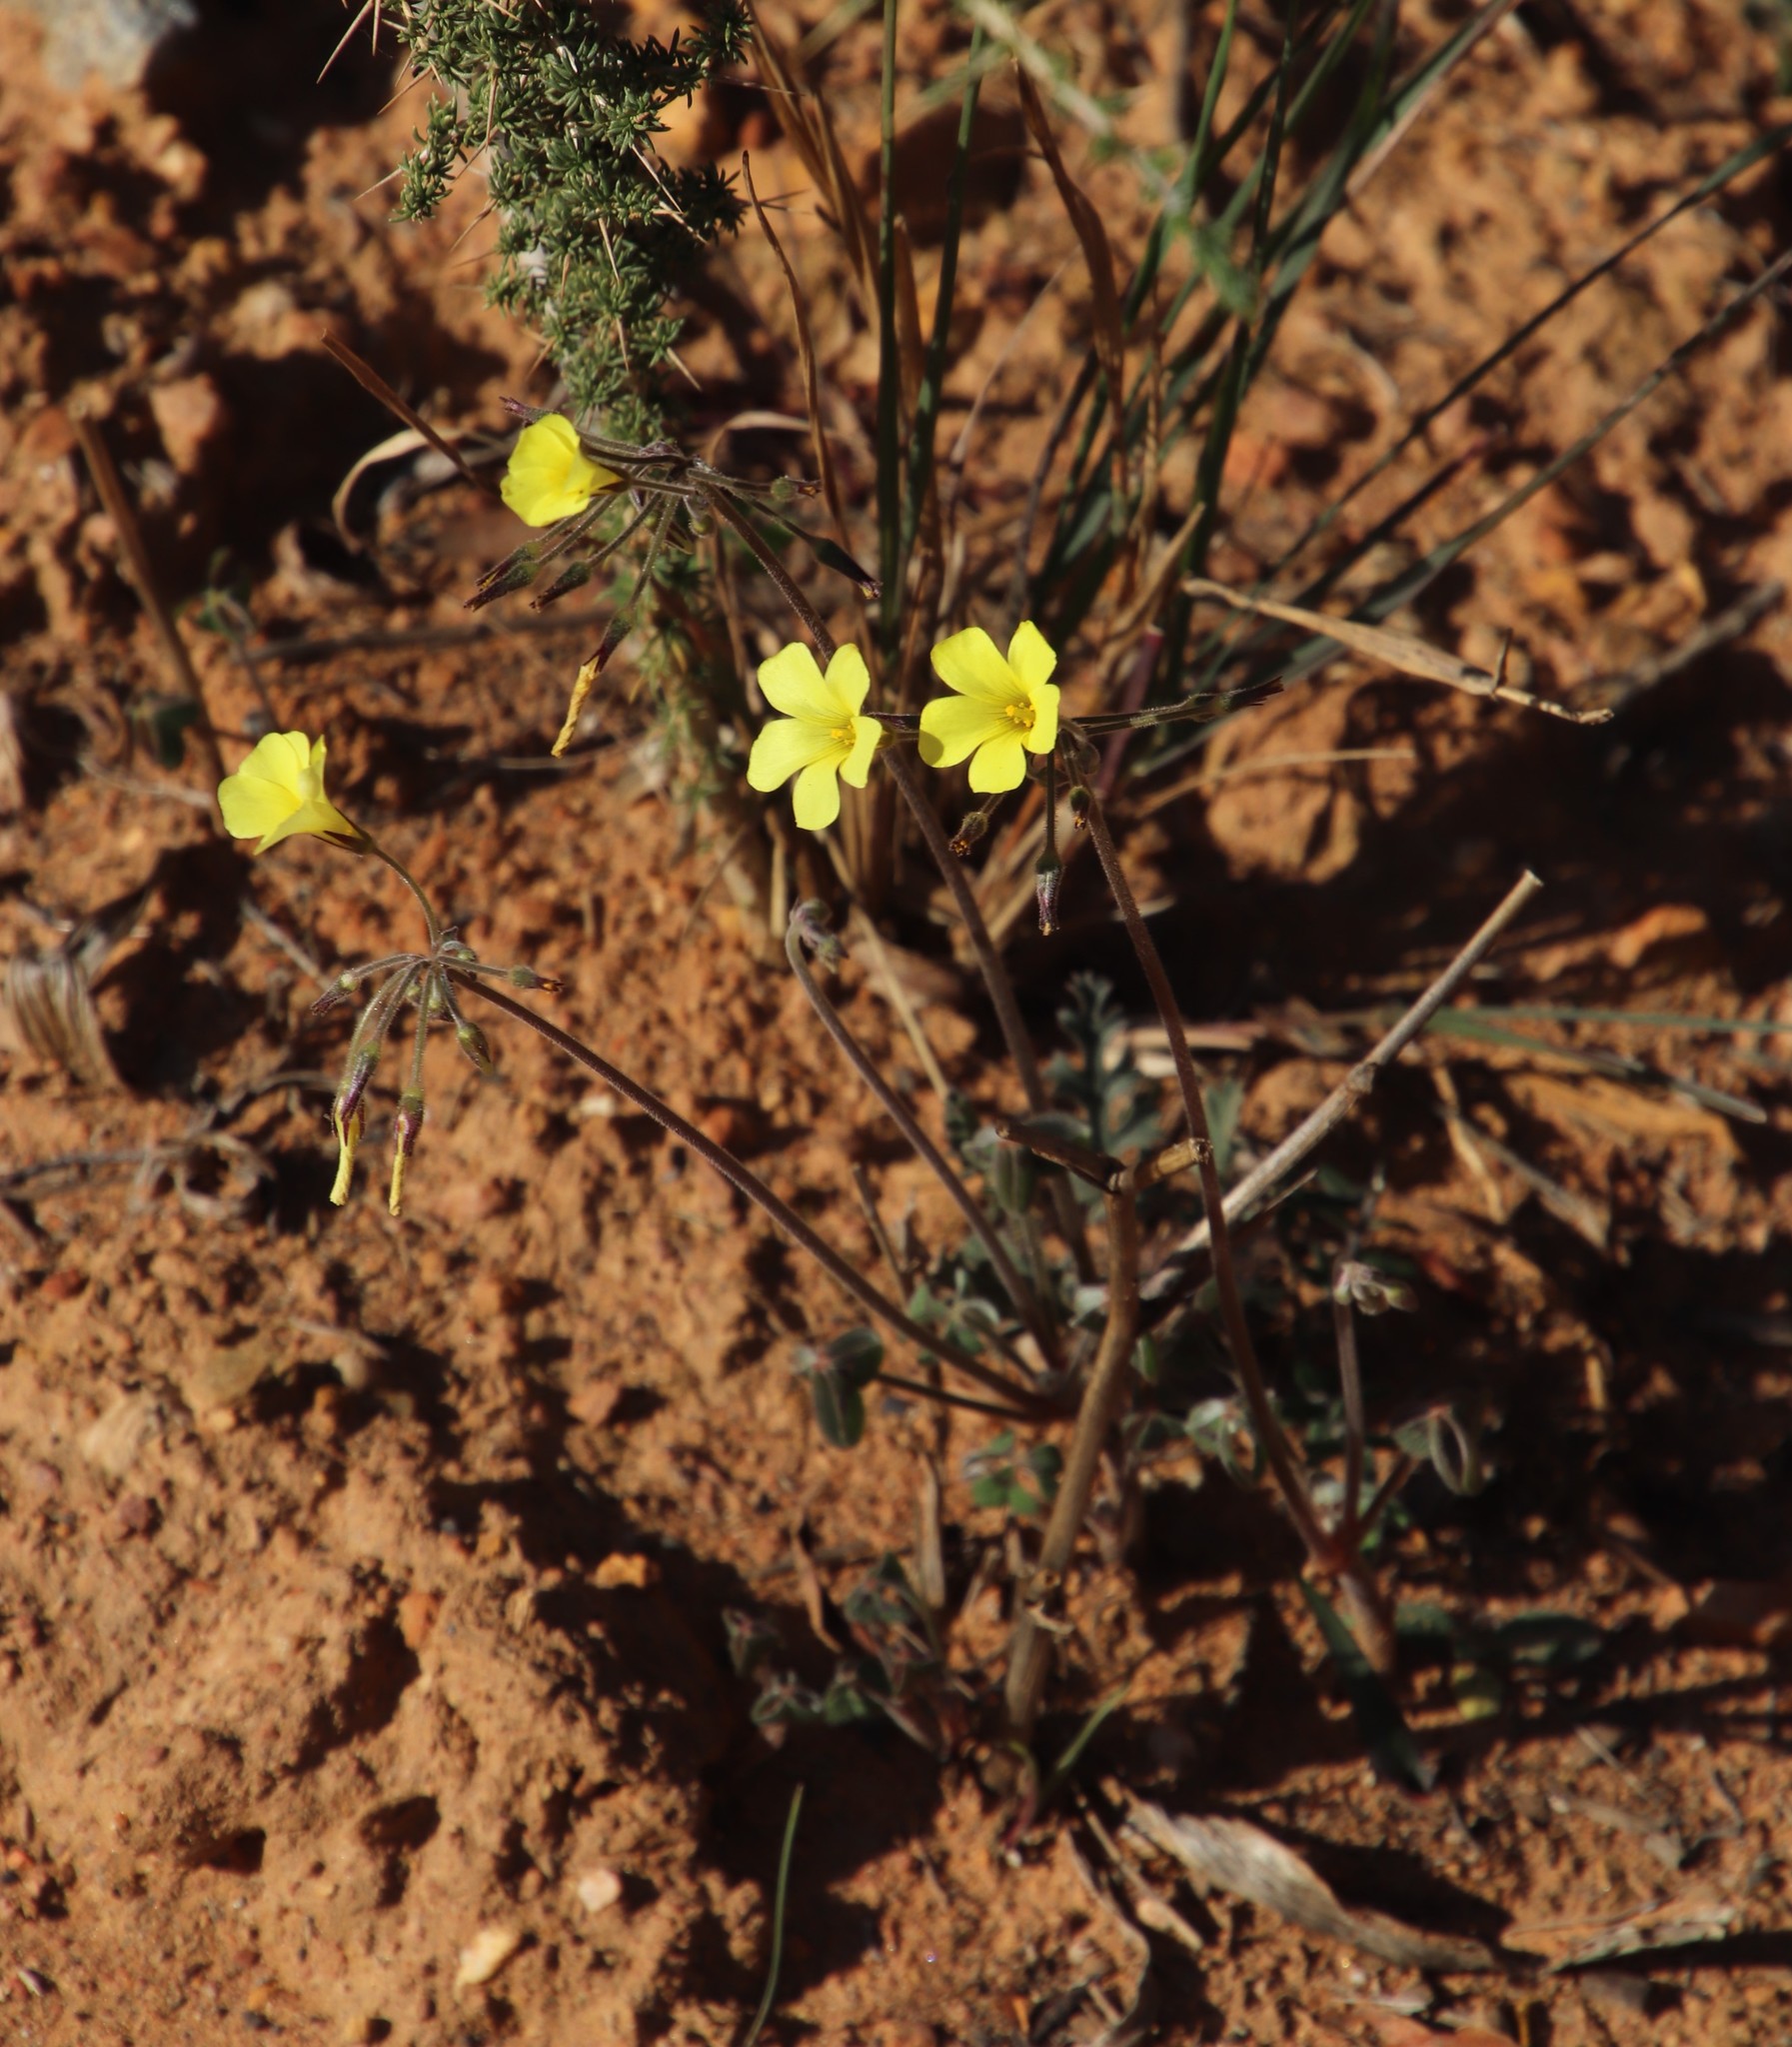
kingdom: Plantae
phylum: Tracheophyta
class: Magnoliopsida
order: Oxalidales
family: Oxalidaceae
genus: Oxalis
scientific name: Oxalis pes-caprae
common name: Bermuda-buttercup
